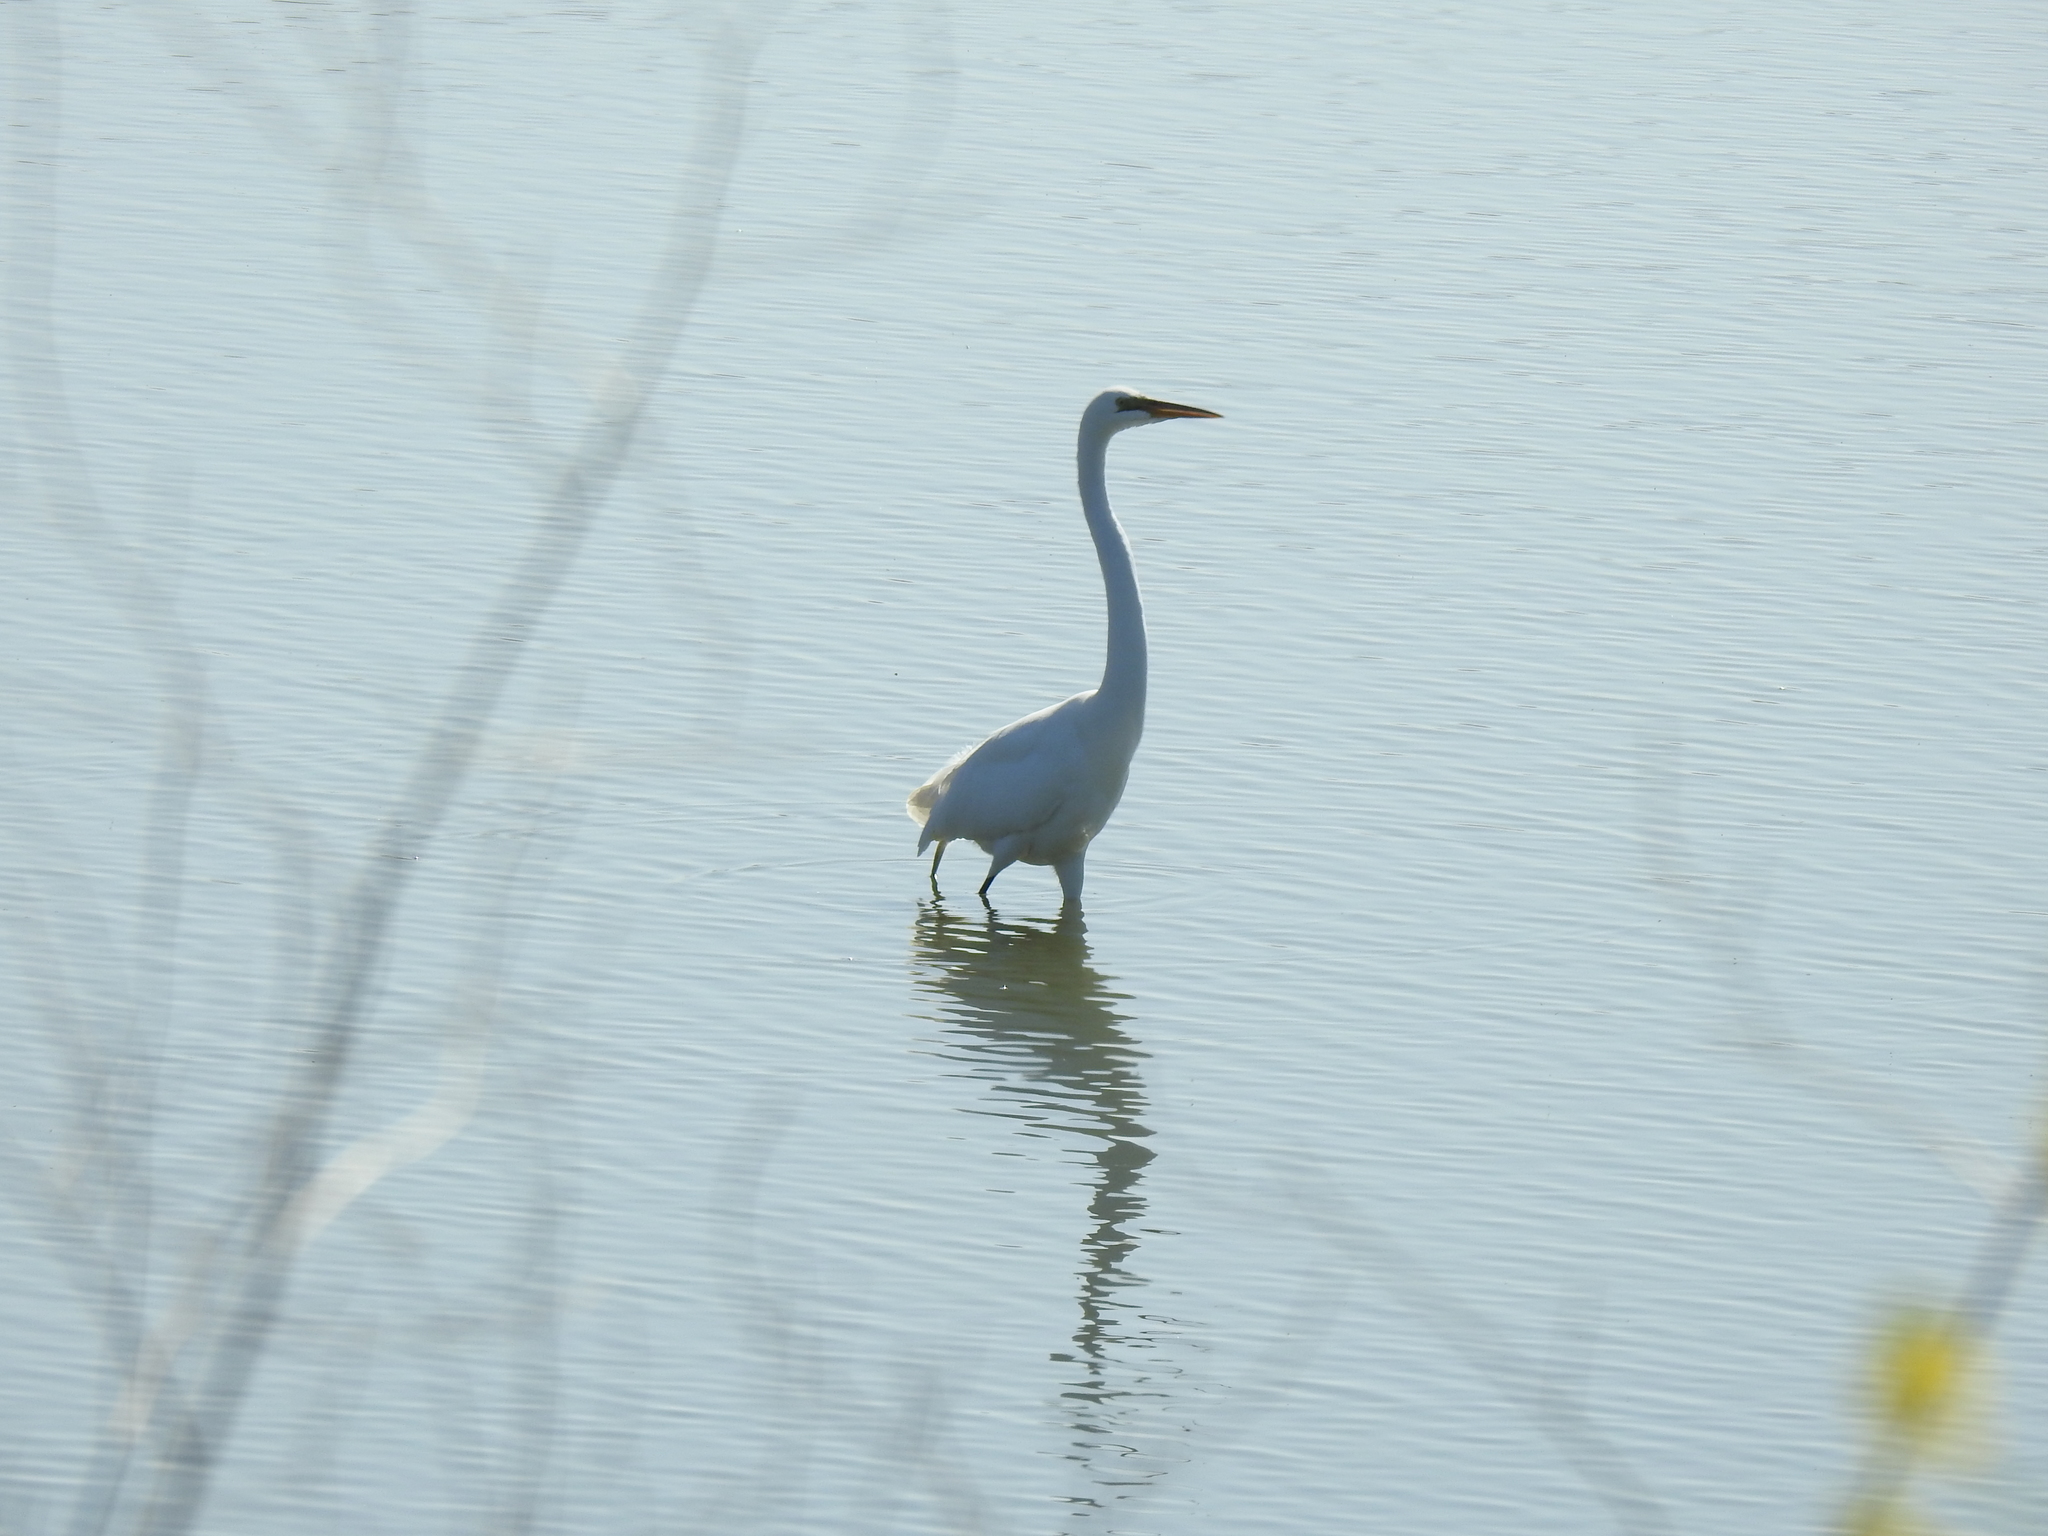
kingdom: Animalia
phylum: Chordata
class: Aves
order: Pelecaniformes
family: Ardeidae
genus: Ardea
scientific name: Ardea alba
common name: Great egret
